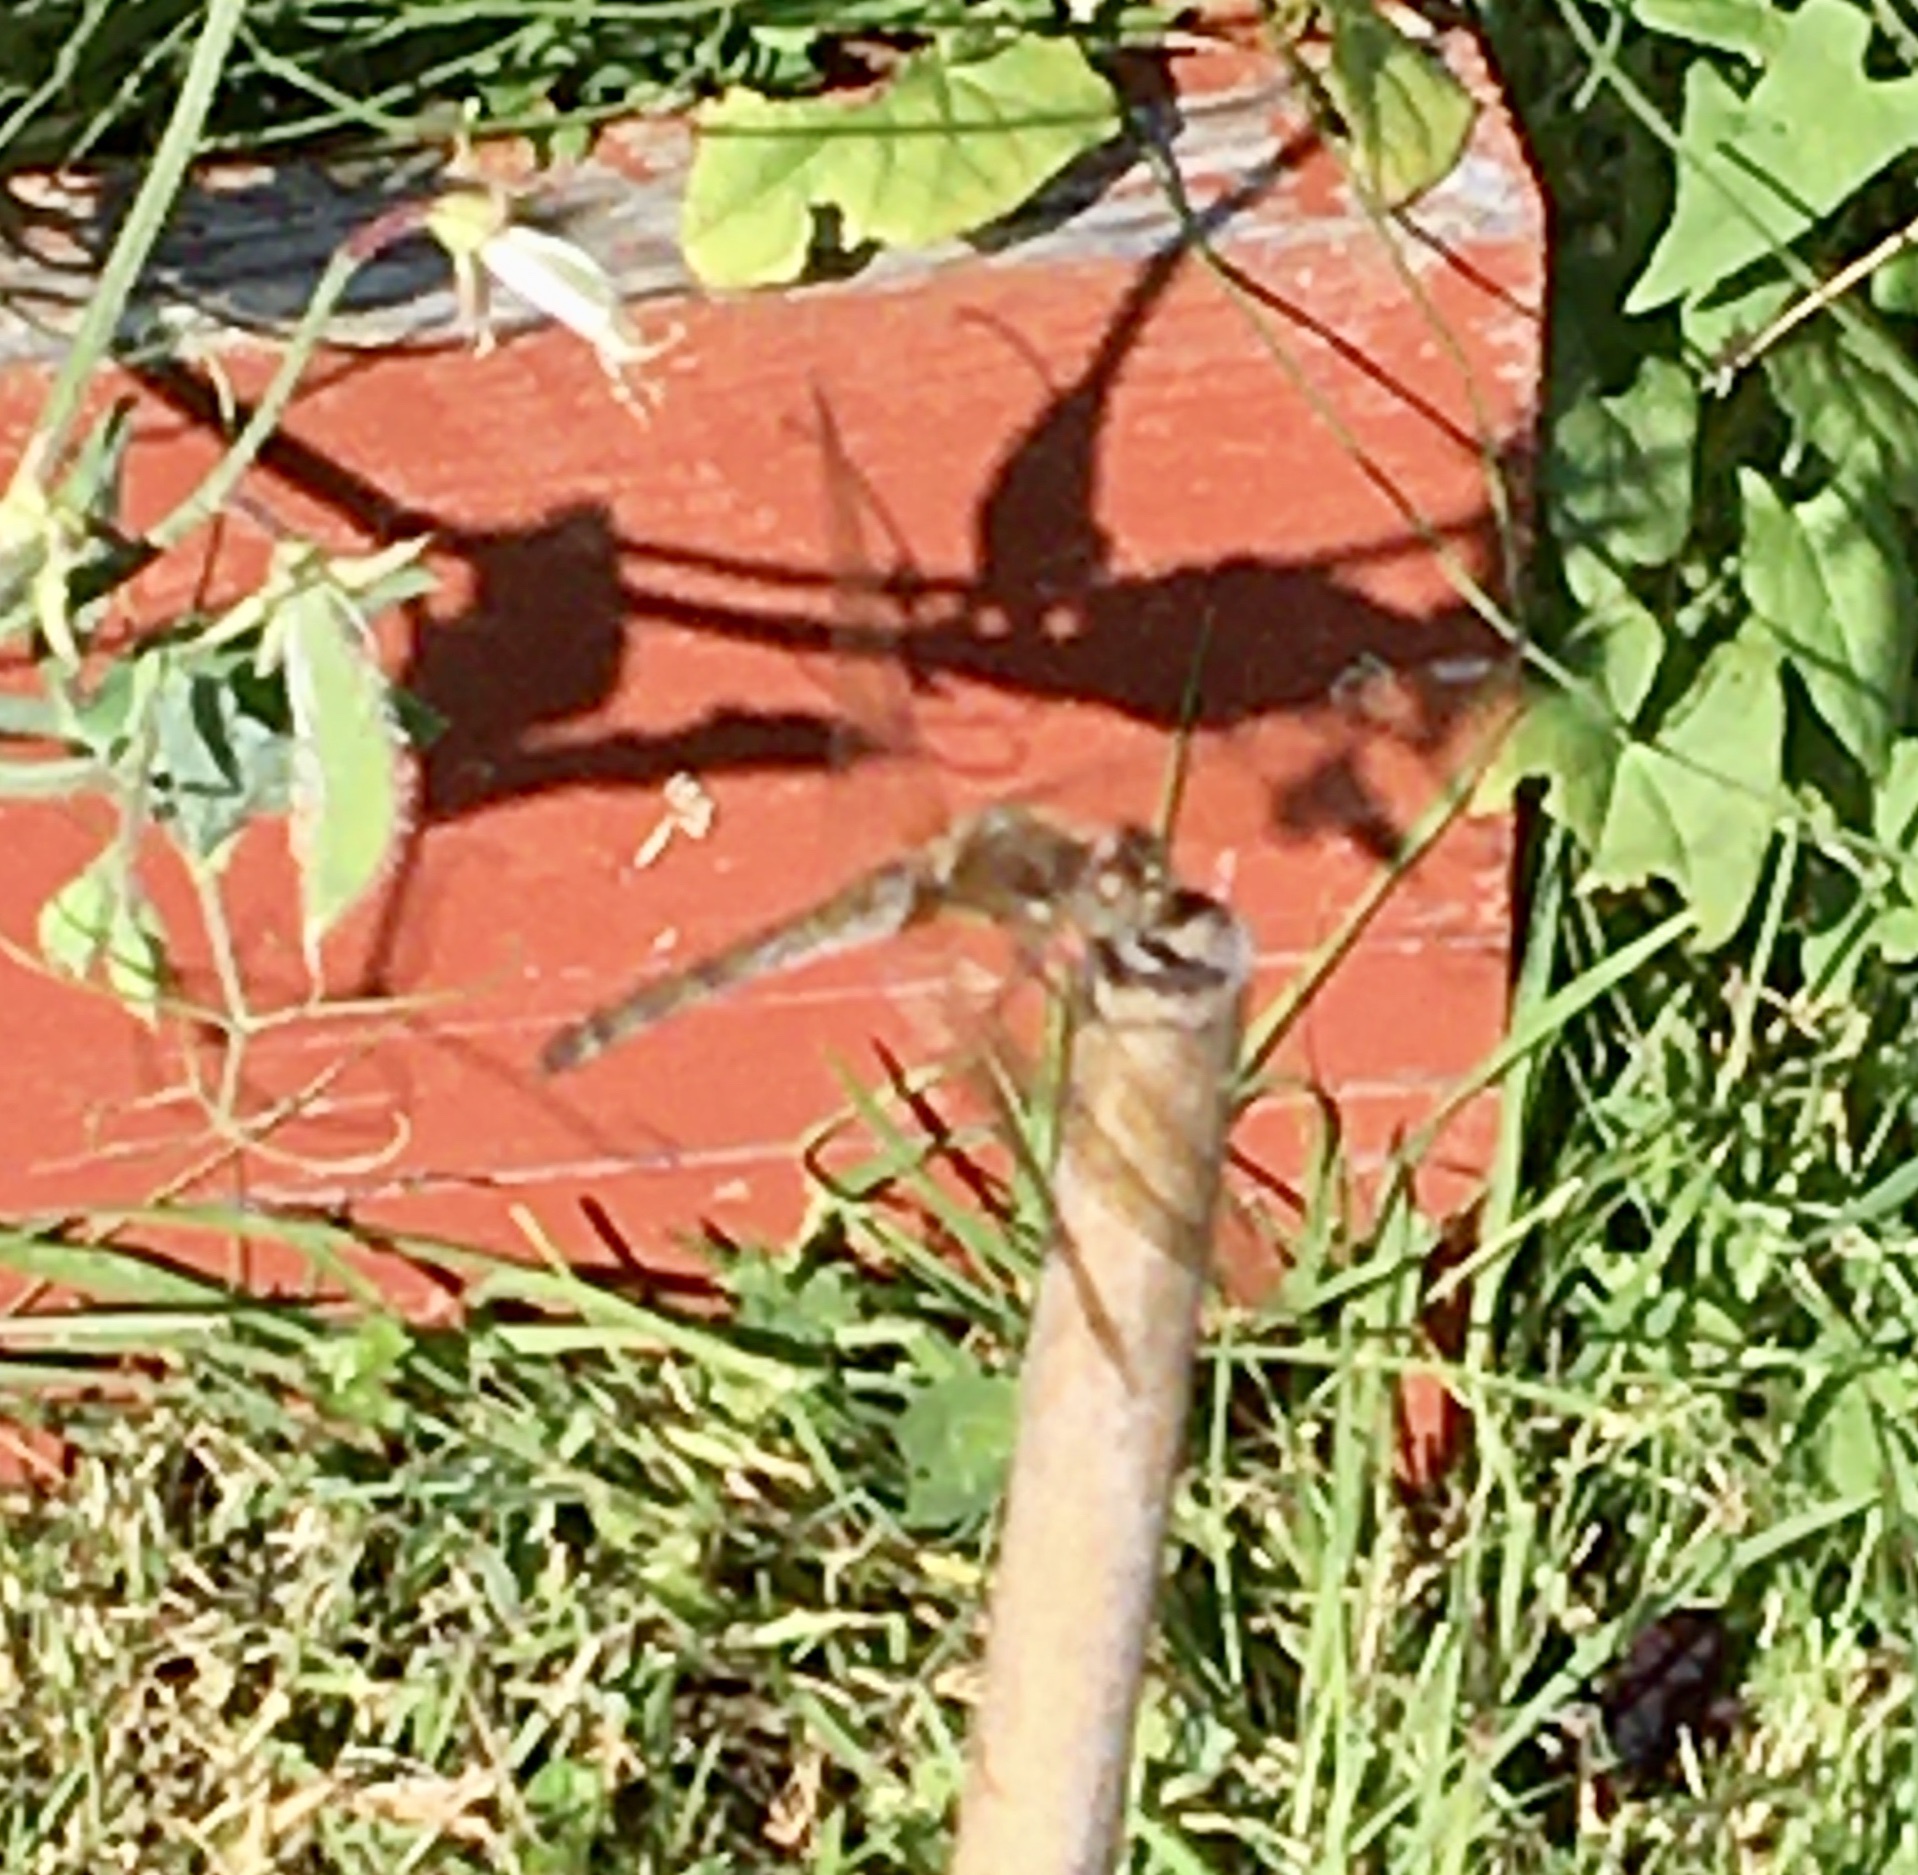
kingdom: Animalia
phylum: Arthropoda
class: Insecta
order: Odonata
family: Libellulidae
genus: Sympetrum
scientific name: Sympetrum striolatum
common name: Common darter
